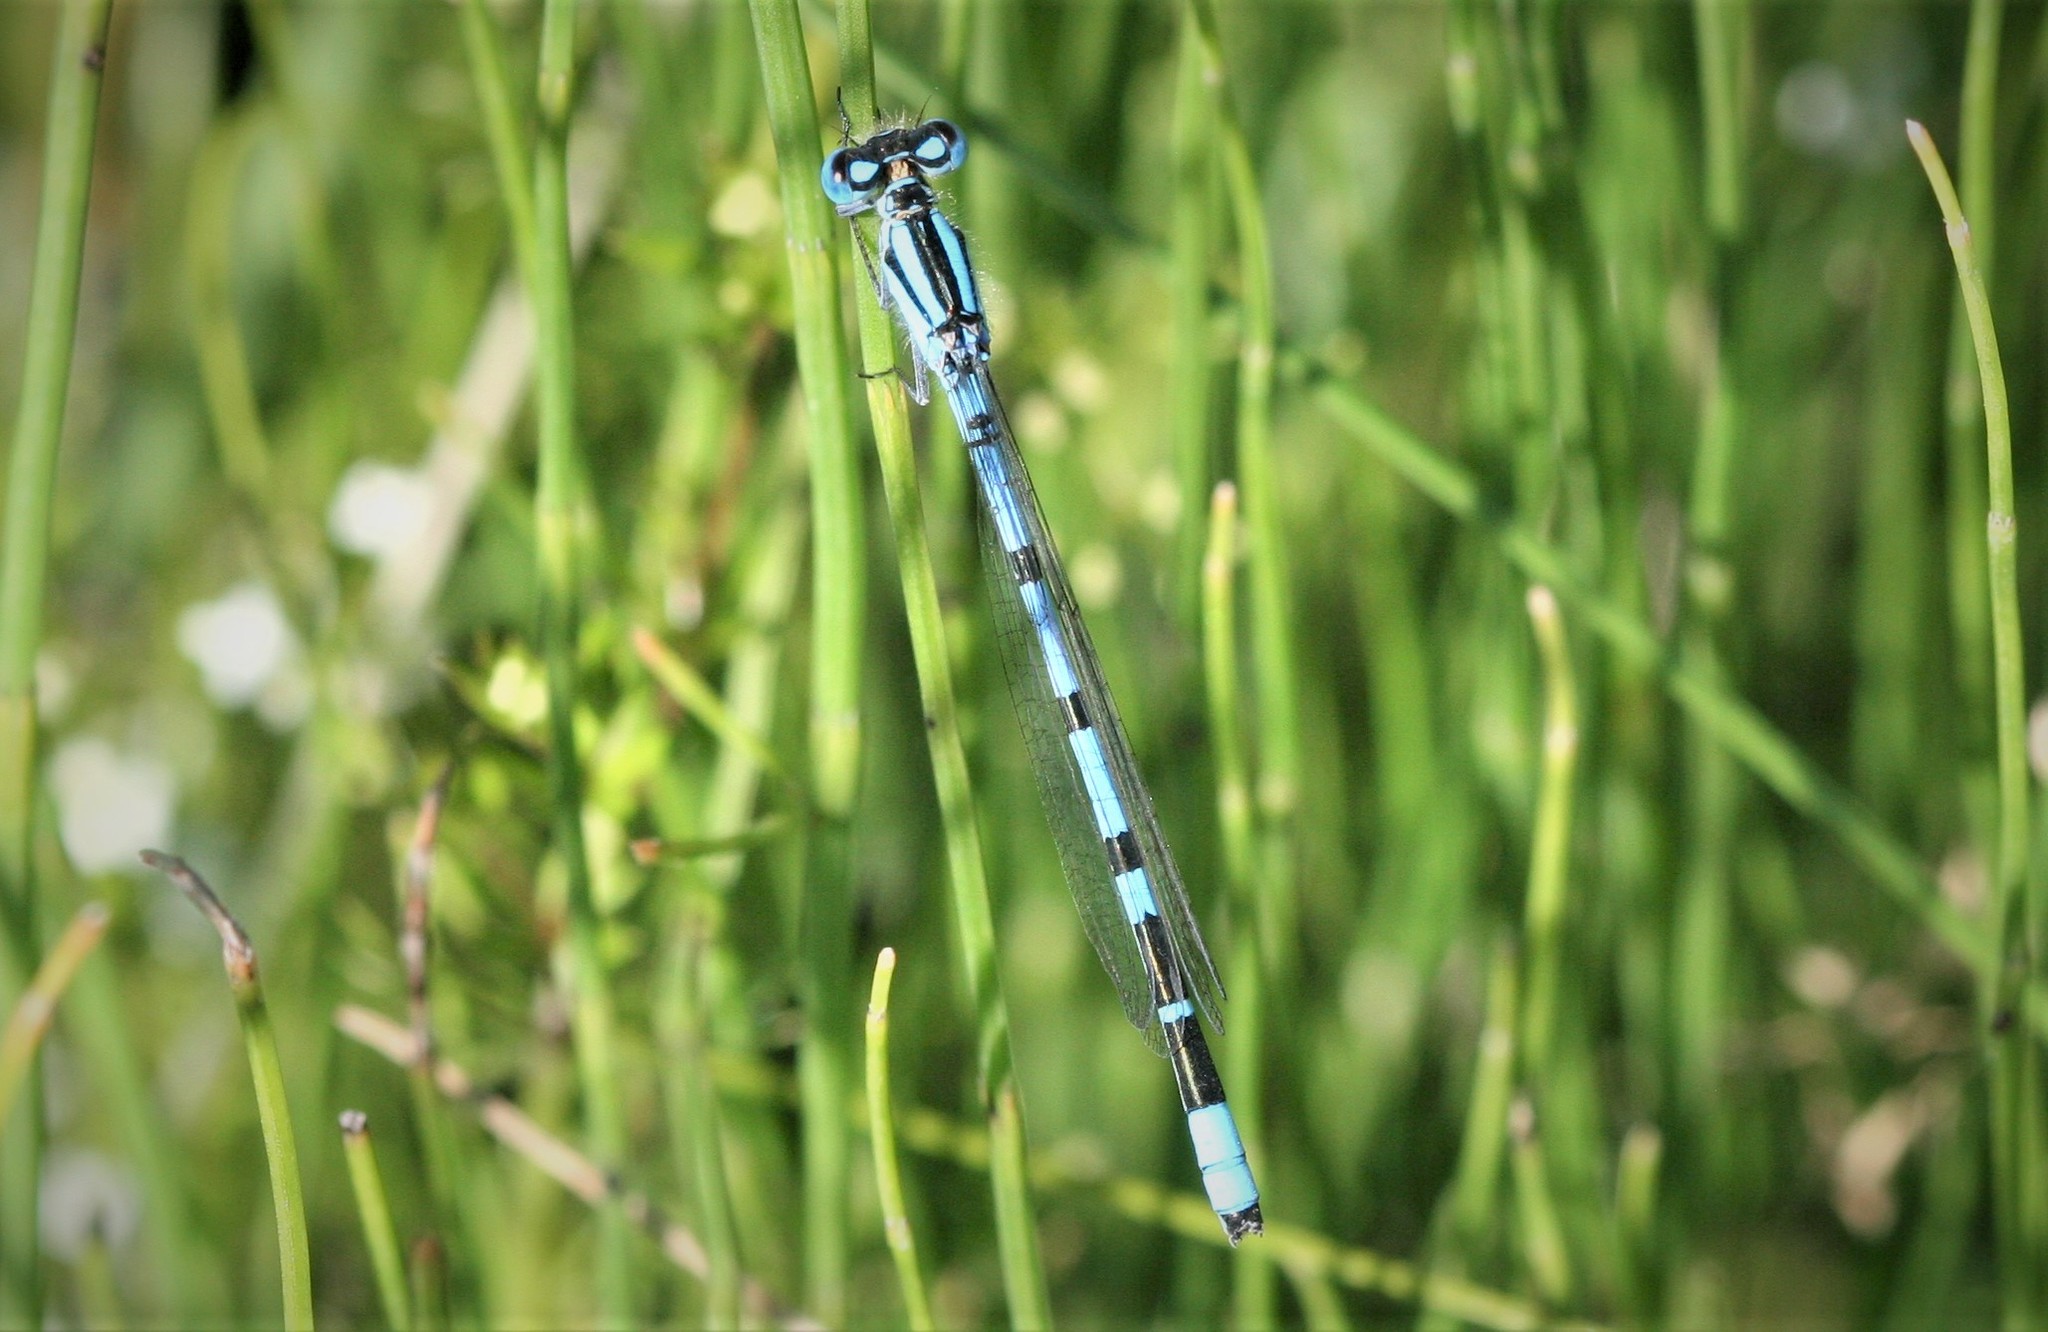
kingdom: Animalia
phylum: Arthropoda
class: Insecta
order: Odonata
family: Coenagrionidae
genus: Enallagma
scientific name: Enallagma cyathigerum
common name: Common blue damselfly
